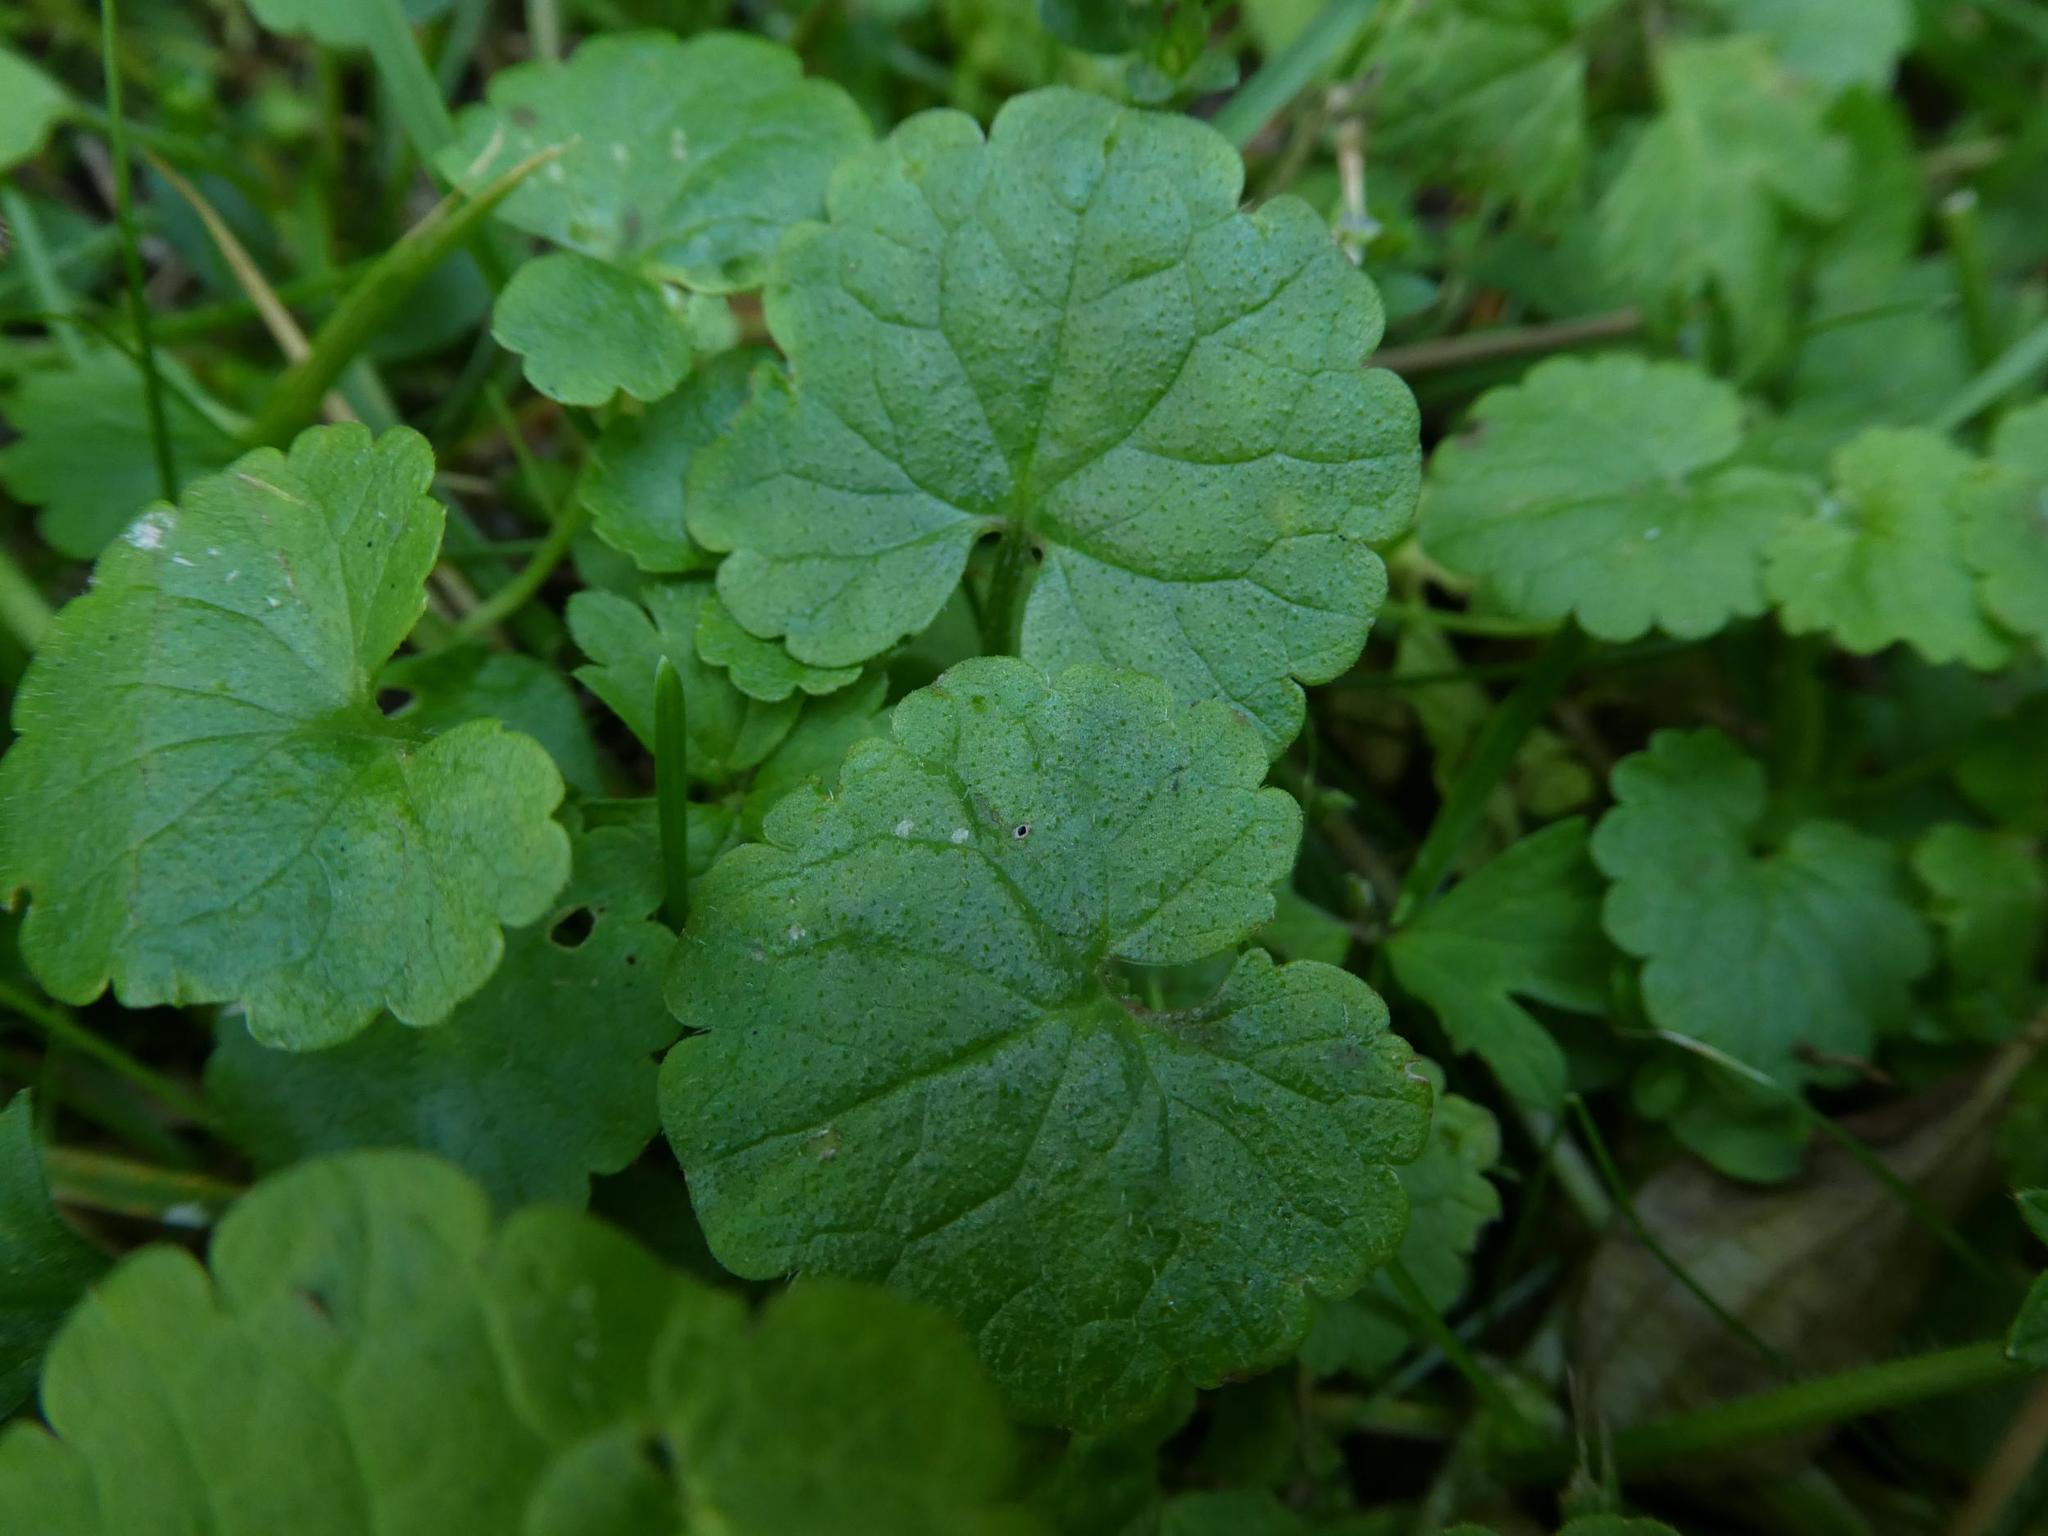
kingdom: Plantae
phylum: Tracheophyta
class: Magnoliopsida
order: Lamiales
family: Lamiaceae
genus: Glechoma
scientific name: Glechoma hederacea
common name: Ground ivy
